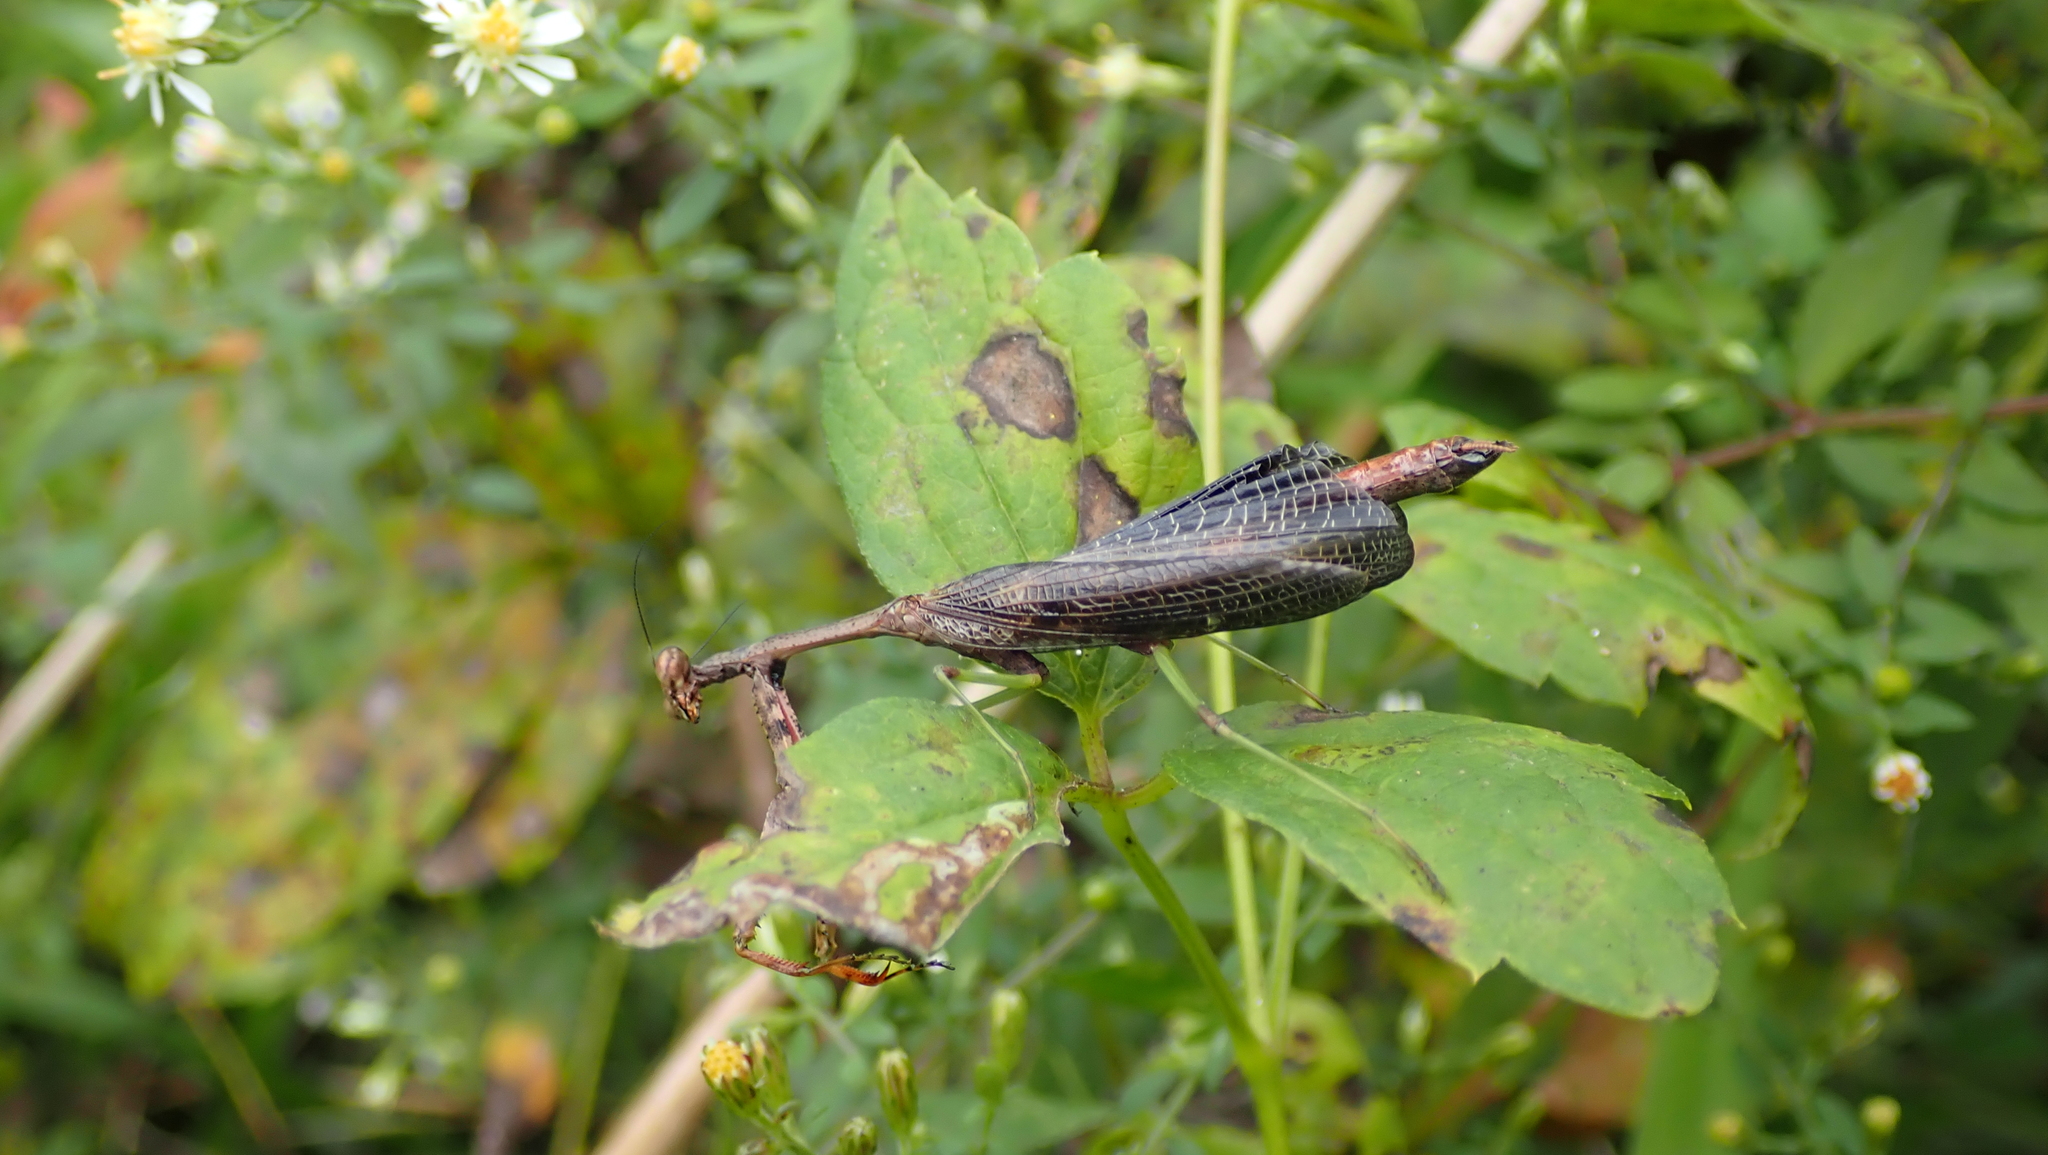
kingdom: Animalia
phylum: Arthropoda
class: Insecta
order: Mantodea
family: Mantidae
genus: Stagmomantis
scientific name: Stagmomantis carolina
